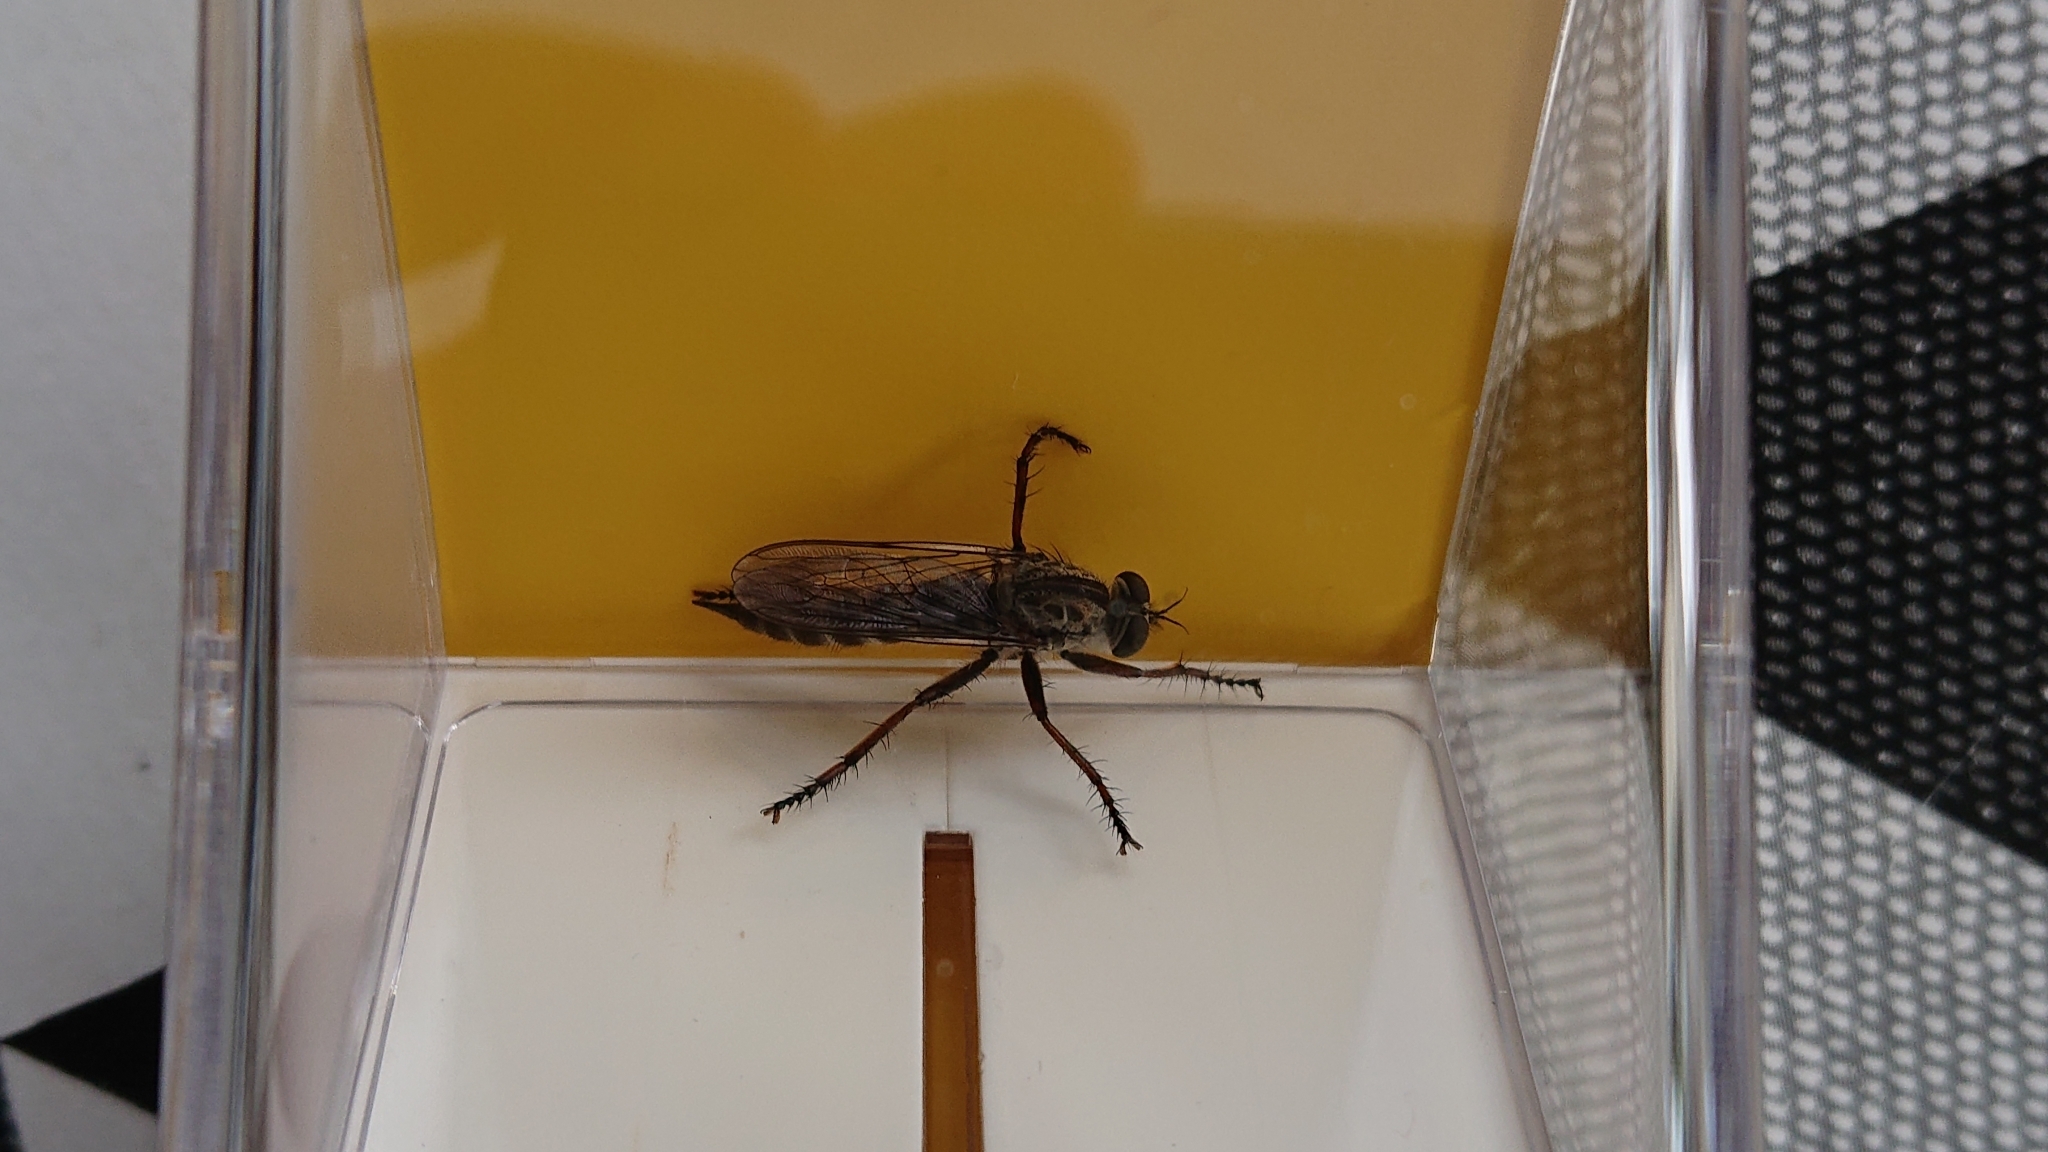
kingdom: Animalia
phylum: Arthropoda
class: Insecta
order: Diptera
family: Asilidae
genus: Machimus
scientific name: Machimus atricapillus
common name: Kite-tailed robberfly
